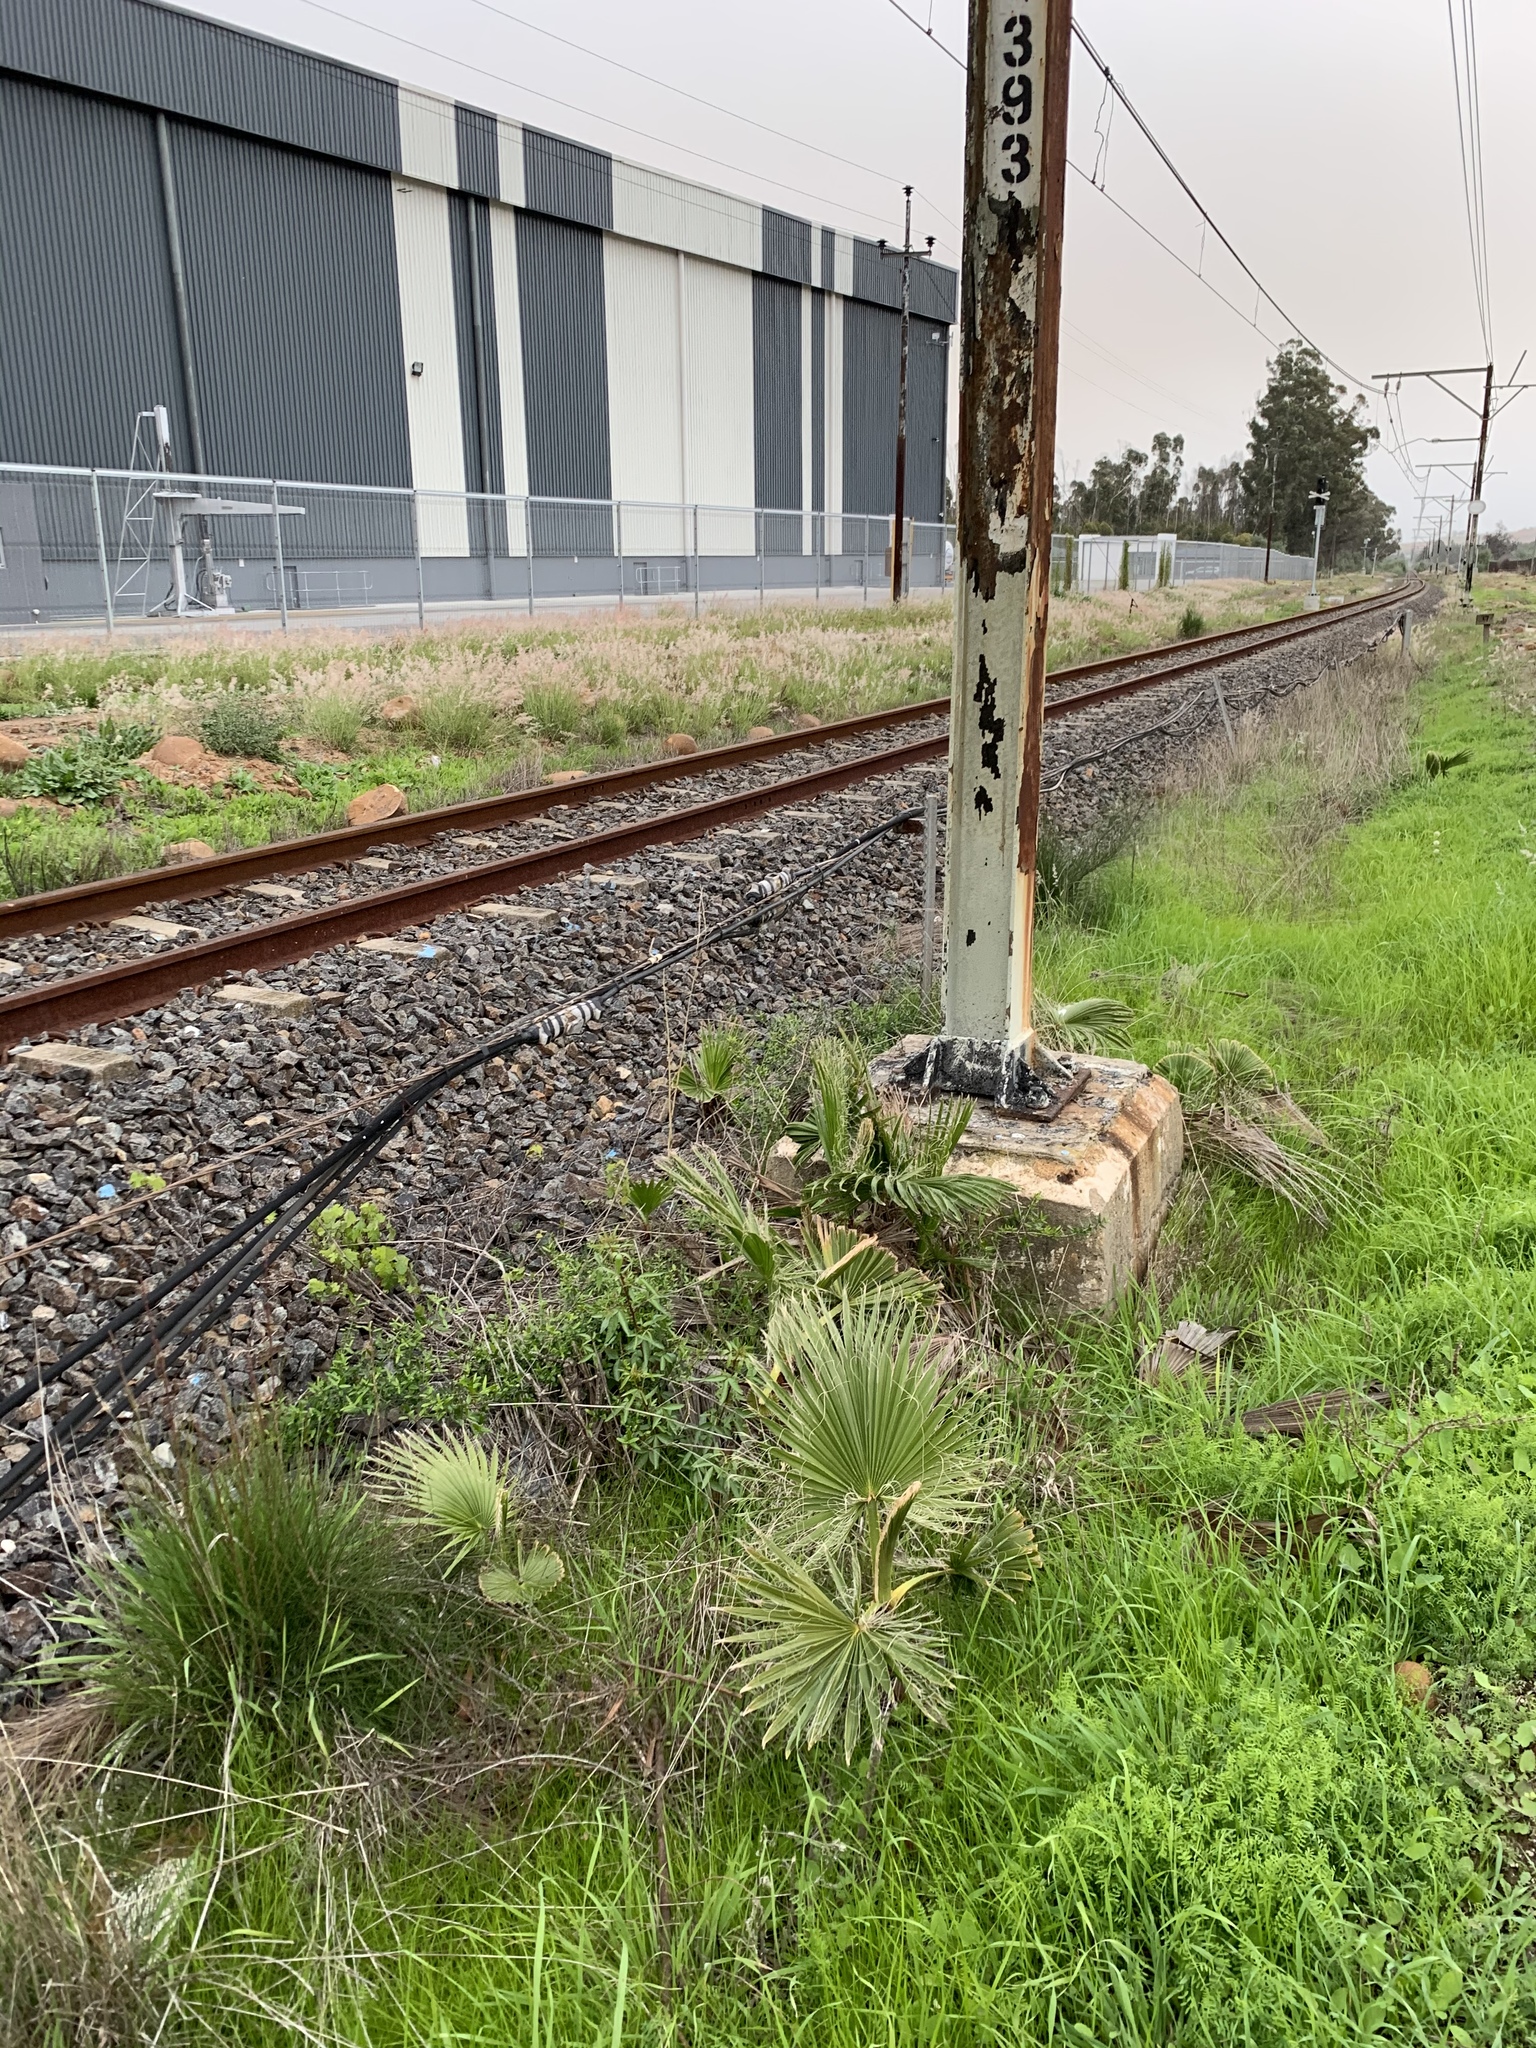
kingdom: Plantae
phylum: Tracheophyta
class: Liliopsida
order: Arecales
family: Arecaceae
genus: Washingtonia
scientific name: Washingtonia robusta
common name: Mexican fan palm
